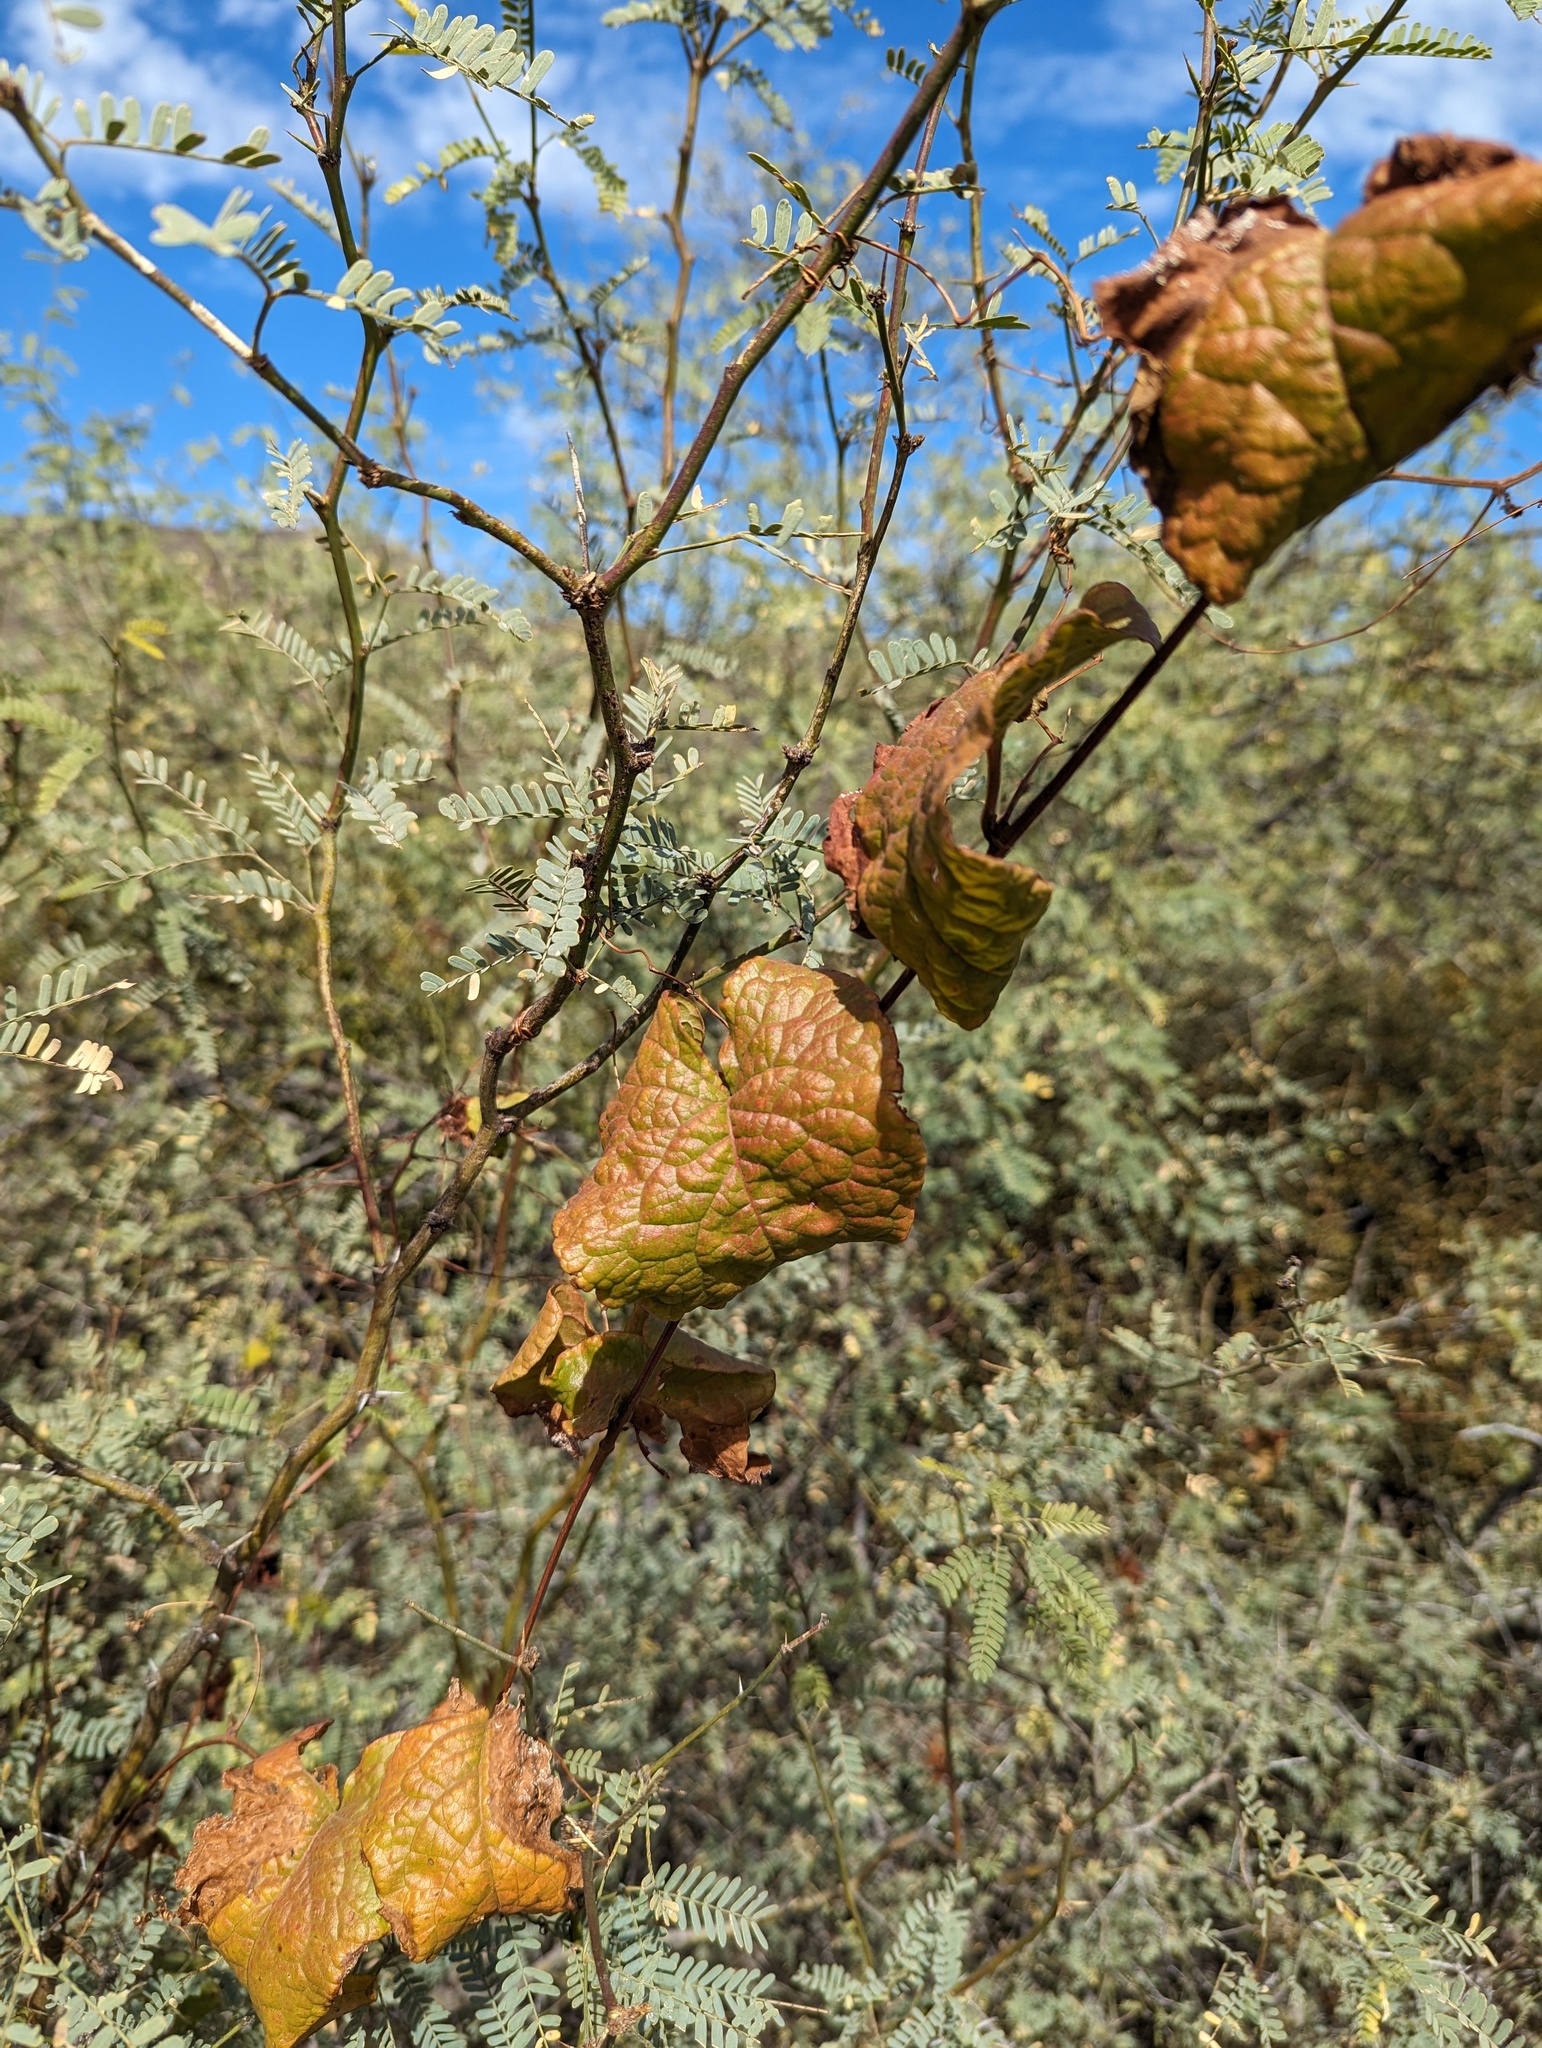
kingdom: Plantae
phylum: Tracheophyta
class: Magnoliopsida
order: Caryophyllales
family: Polygonaceae
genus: Antigonon
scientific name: Antigonon leptopus
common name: Coral vine
